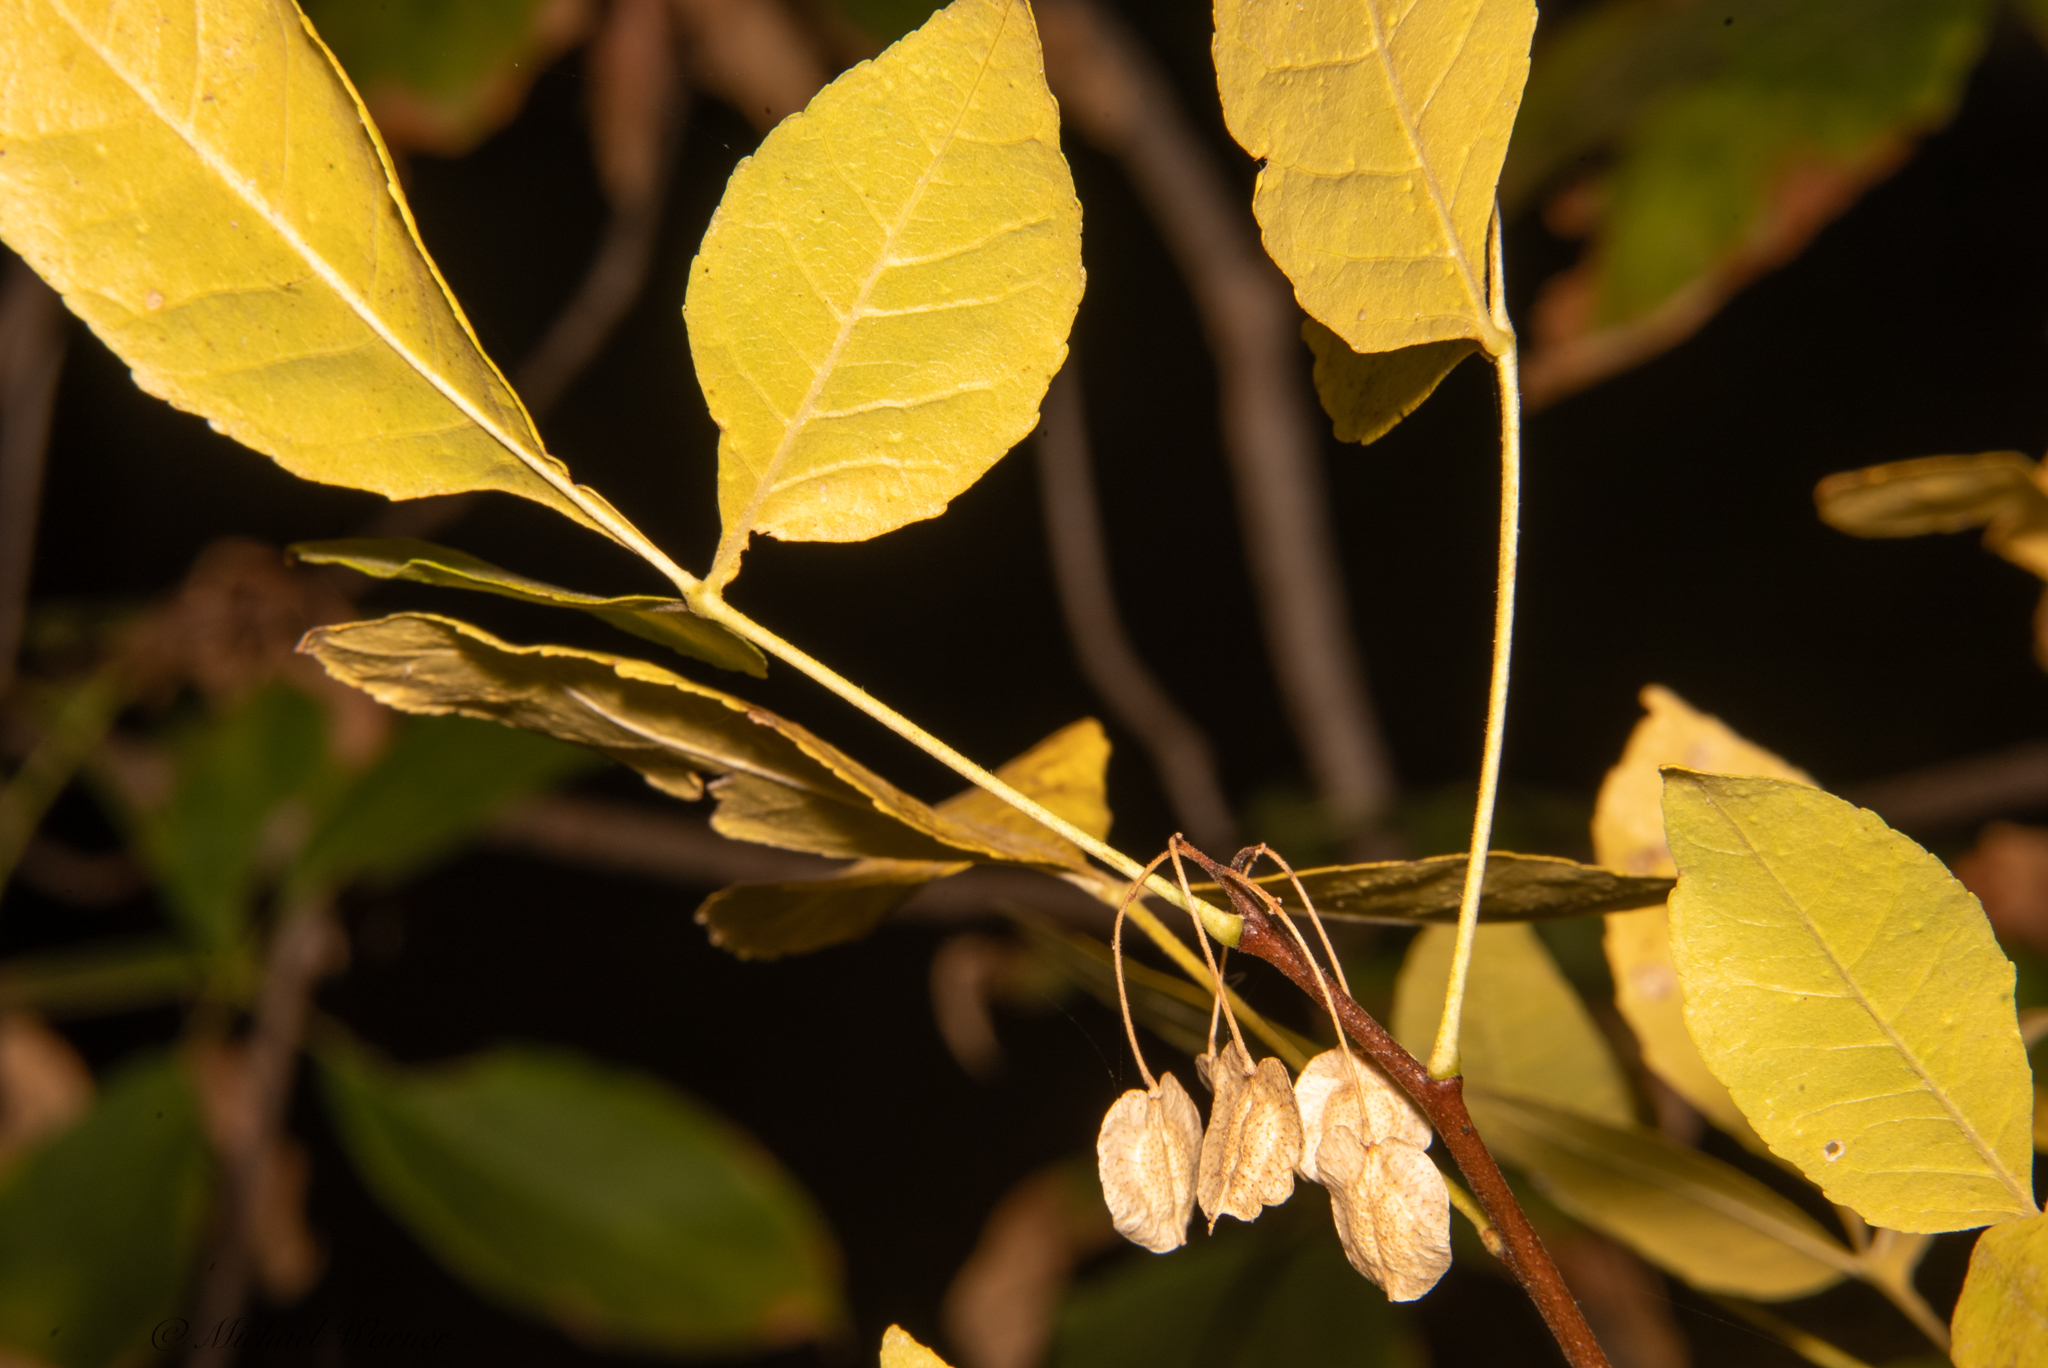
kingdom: Plantae
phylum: Tracheophyta
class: Magnoliopsida
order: Sapindales
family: Rutaceae
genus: Ptelea
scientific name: Ptelea crenulata
